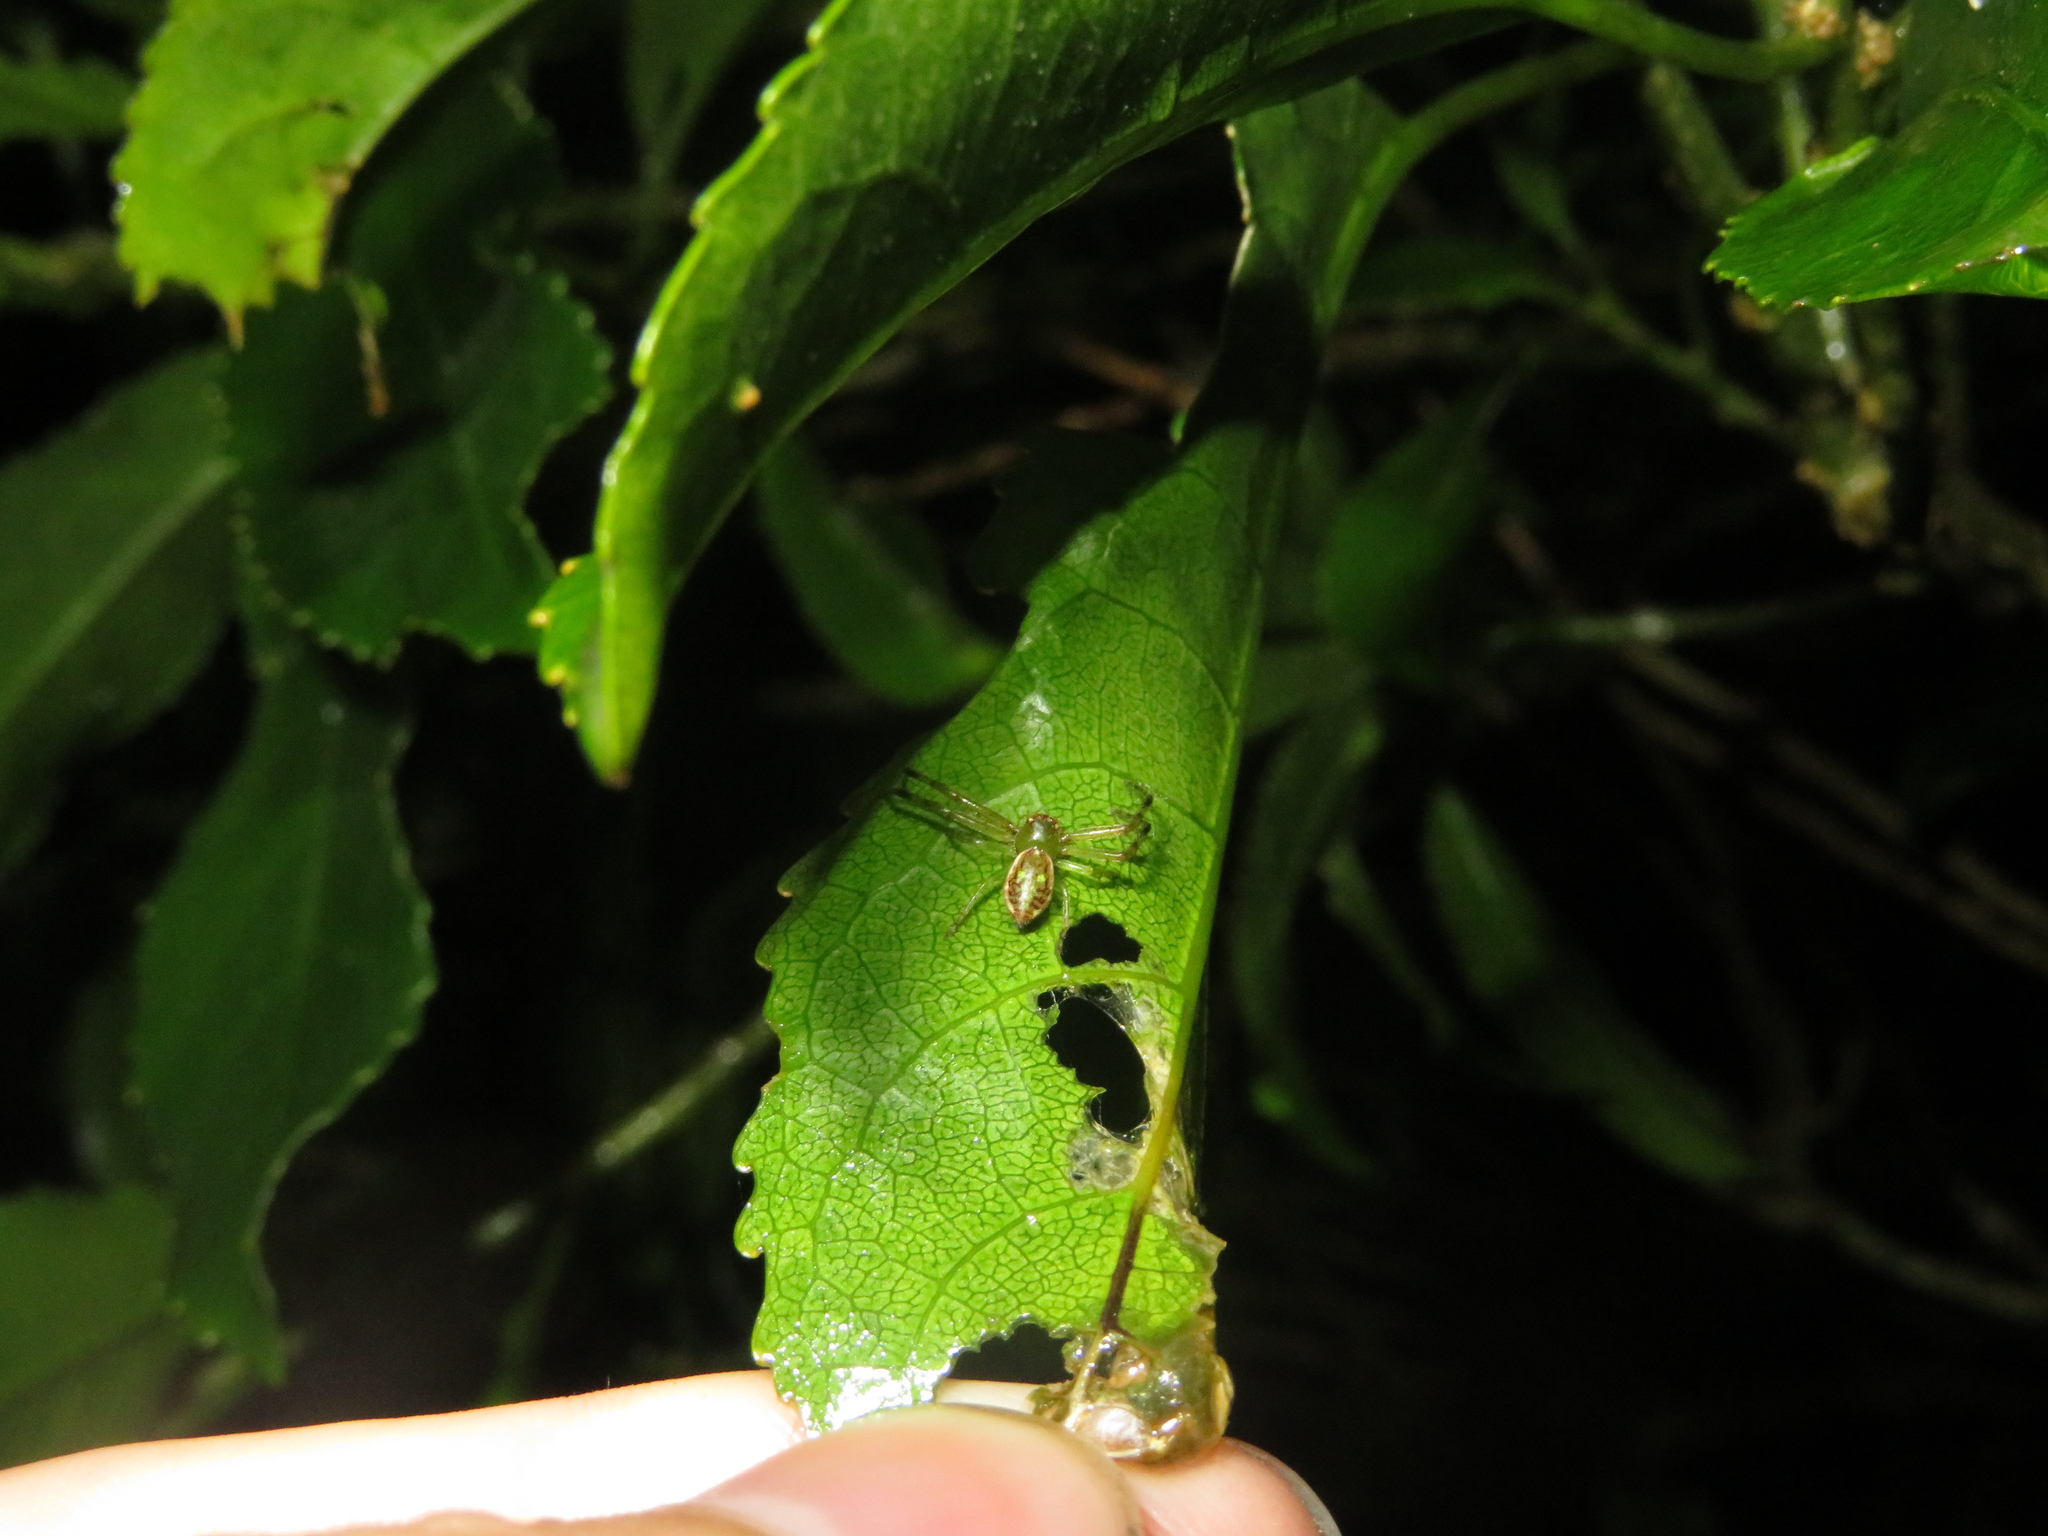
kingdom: Animalia
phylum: Arthropoda
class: Arachnida
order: Araneae
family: Thomisidae
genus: Diaea
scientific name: Diaea ambara
